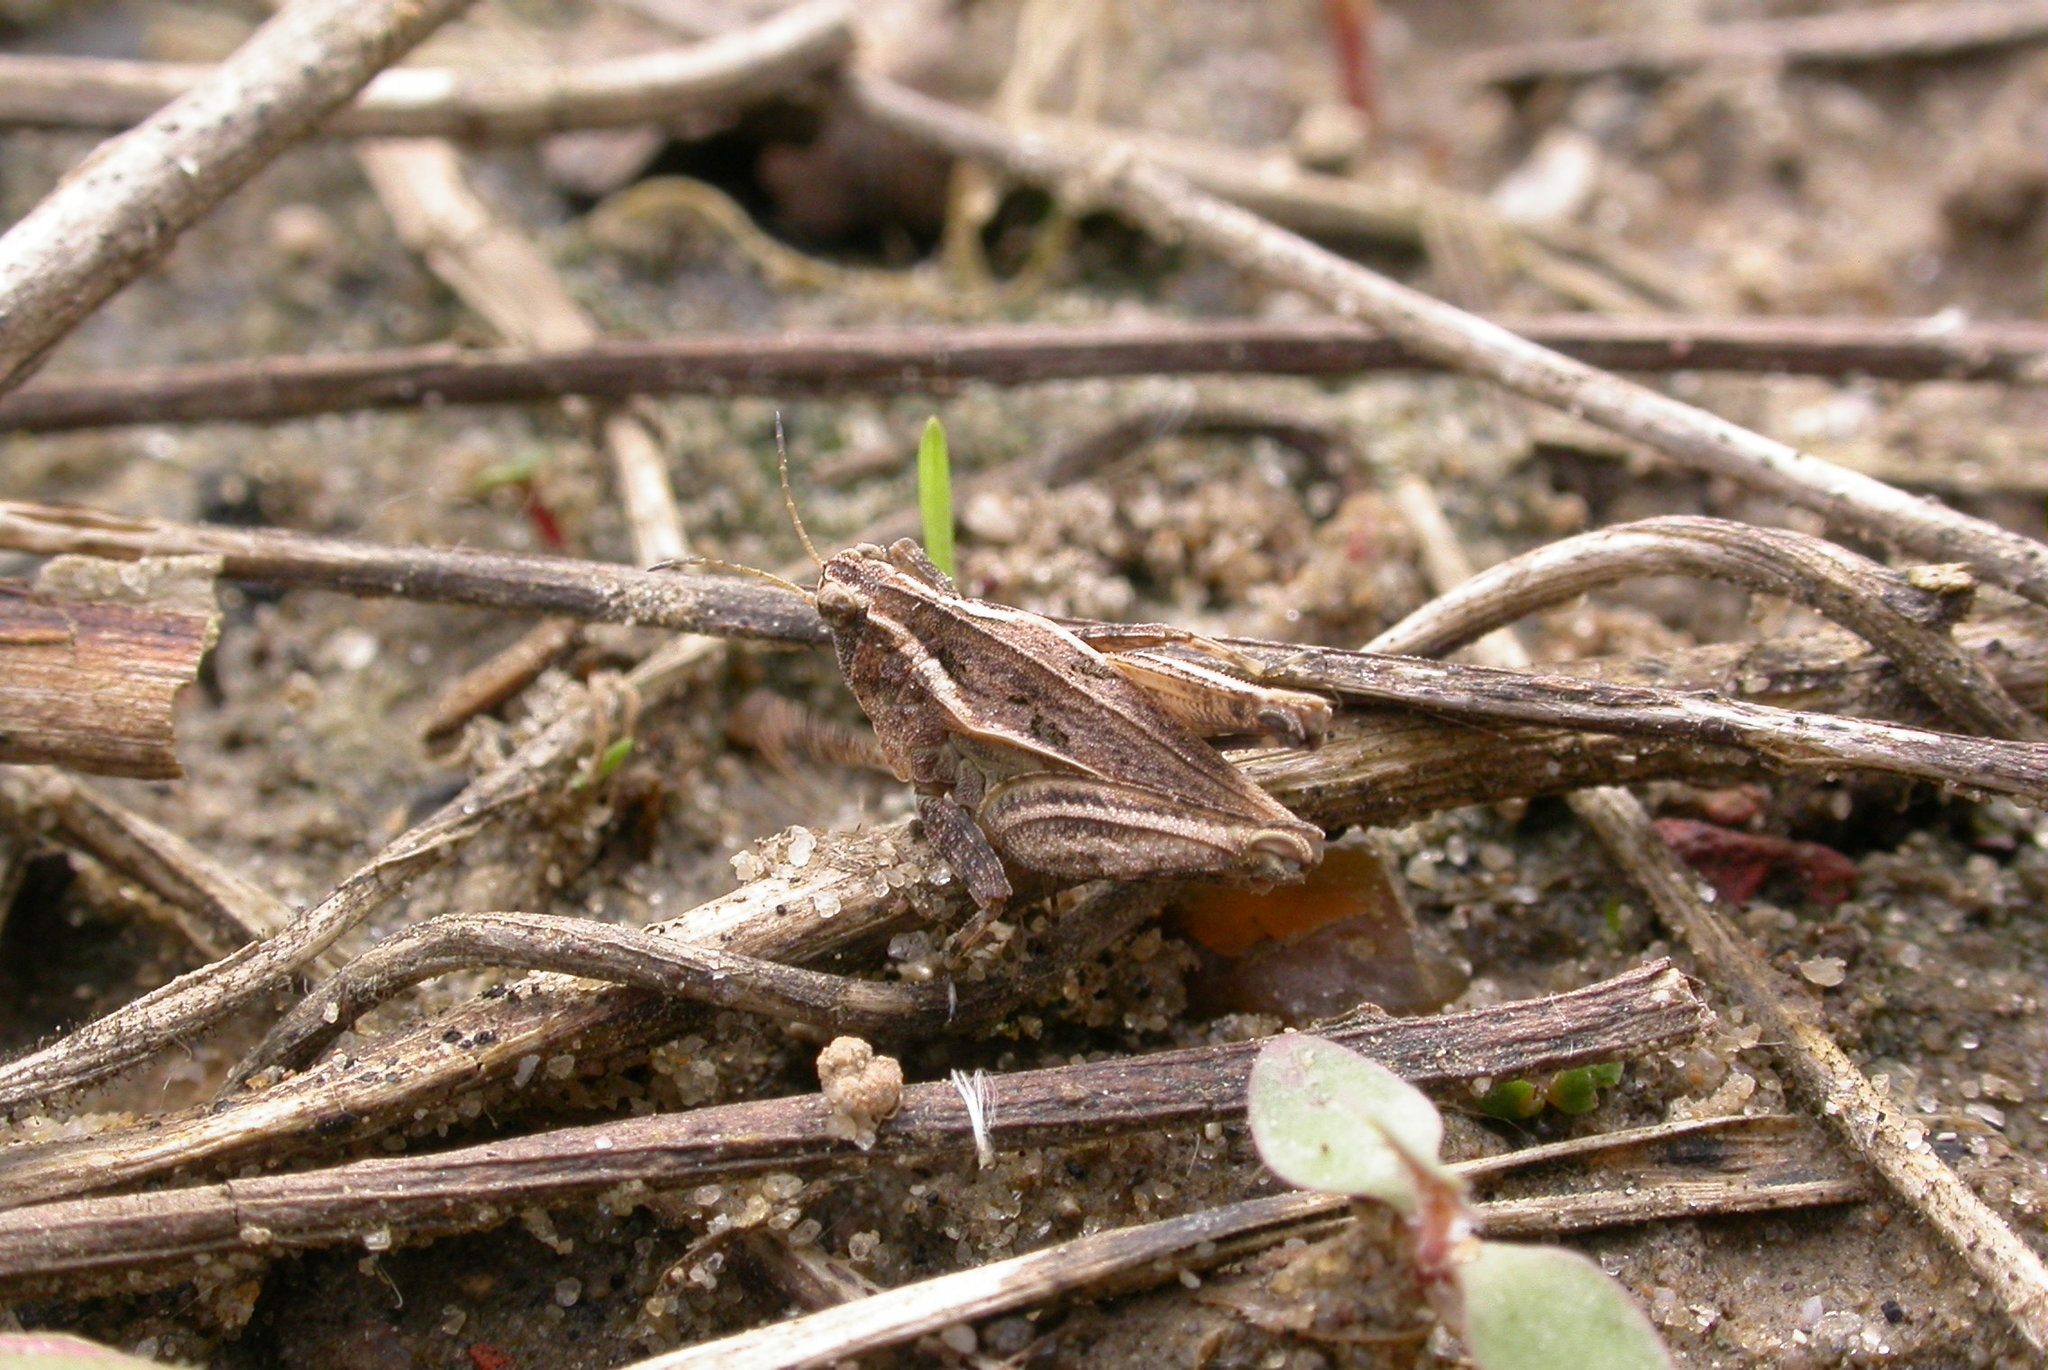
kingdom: Animalia
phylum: Arthropoda
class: Insecta
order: Orthoptera
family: Tetrigidae
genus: Tetrix
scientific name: Tetrix tenuicornis
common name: Long-horned groundhopper
